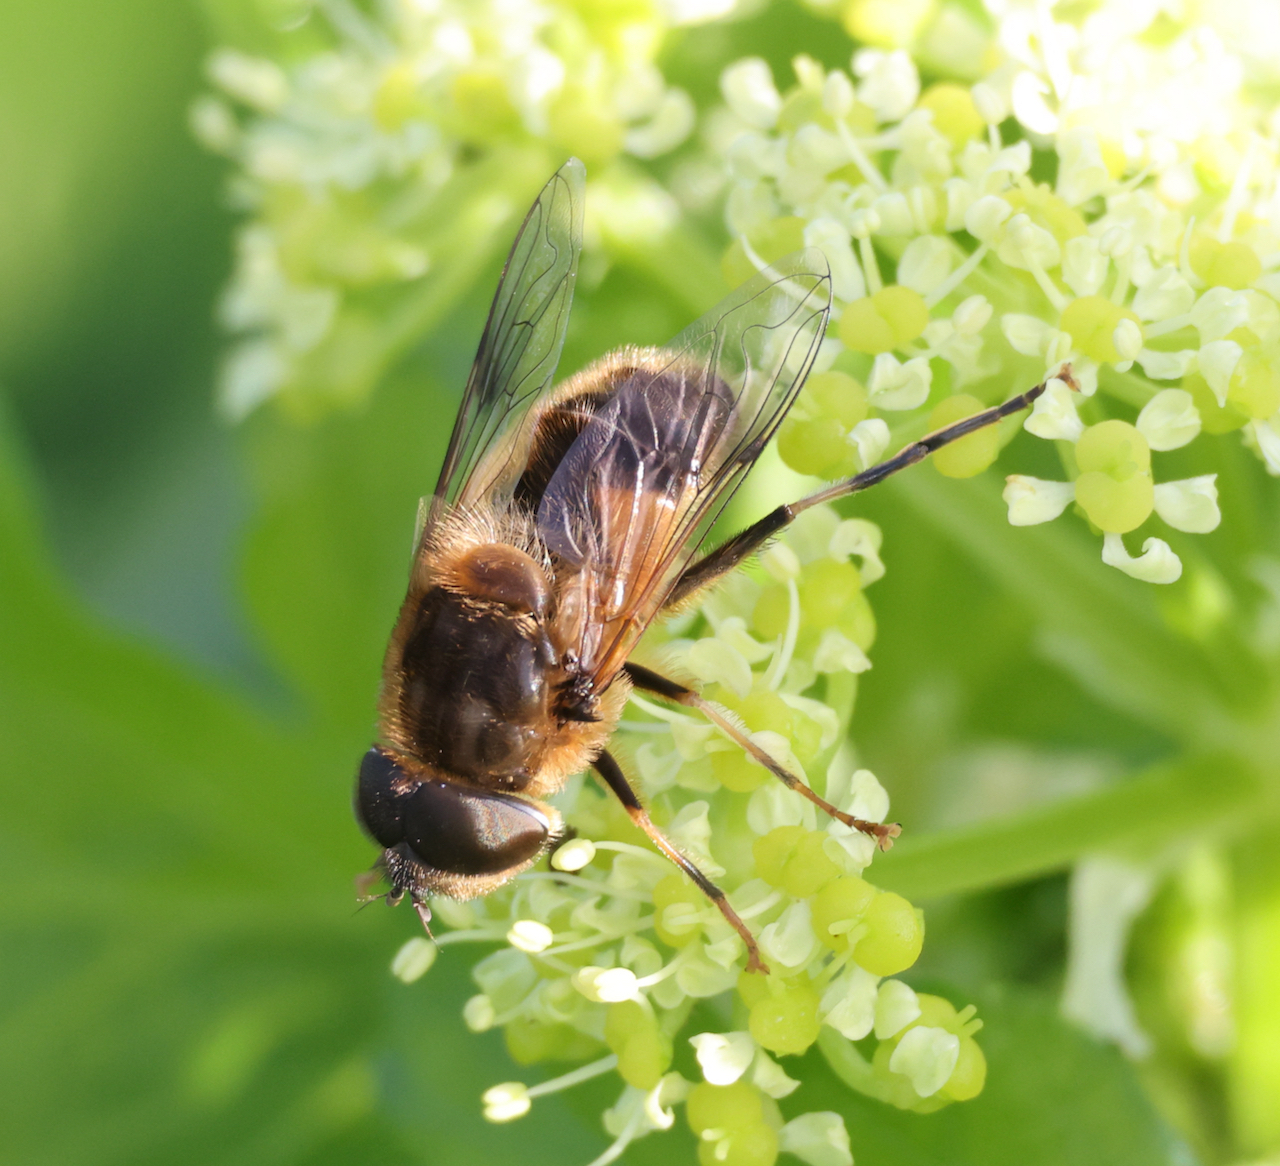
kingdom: Animalia
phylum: Arthropoda
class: Insecta
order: Diptera
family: Syrphidae
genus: Eristalis
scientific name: Eristalis pertinax
